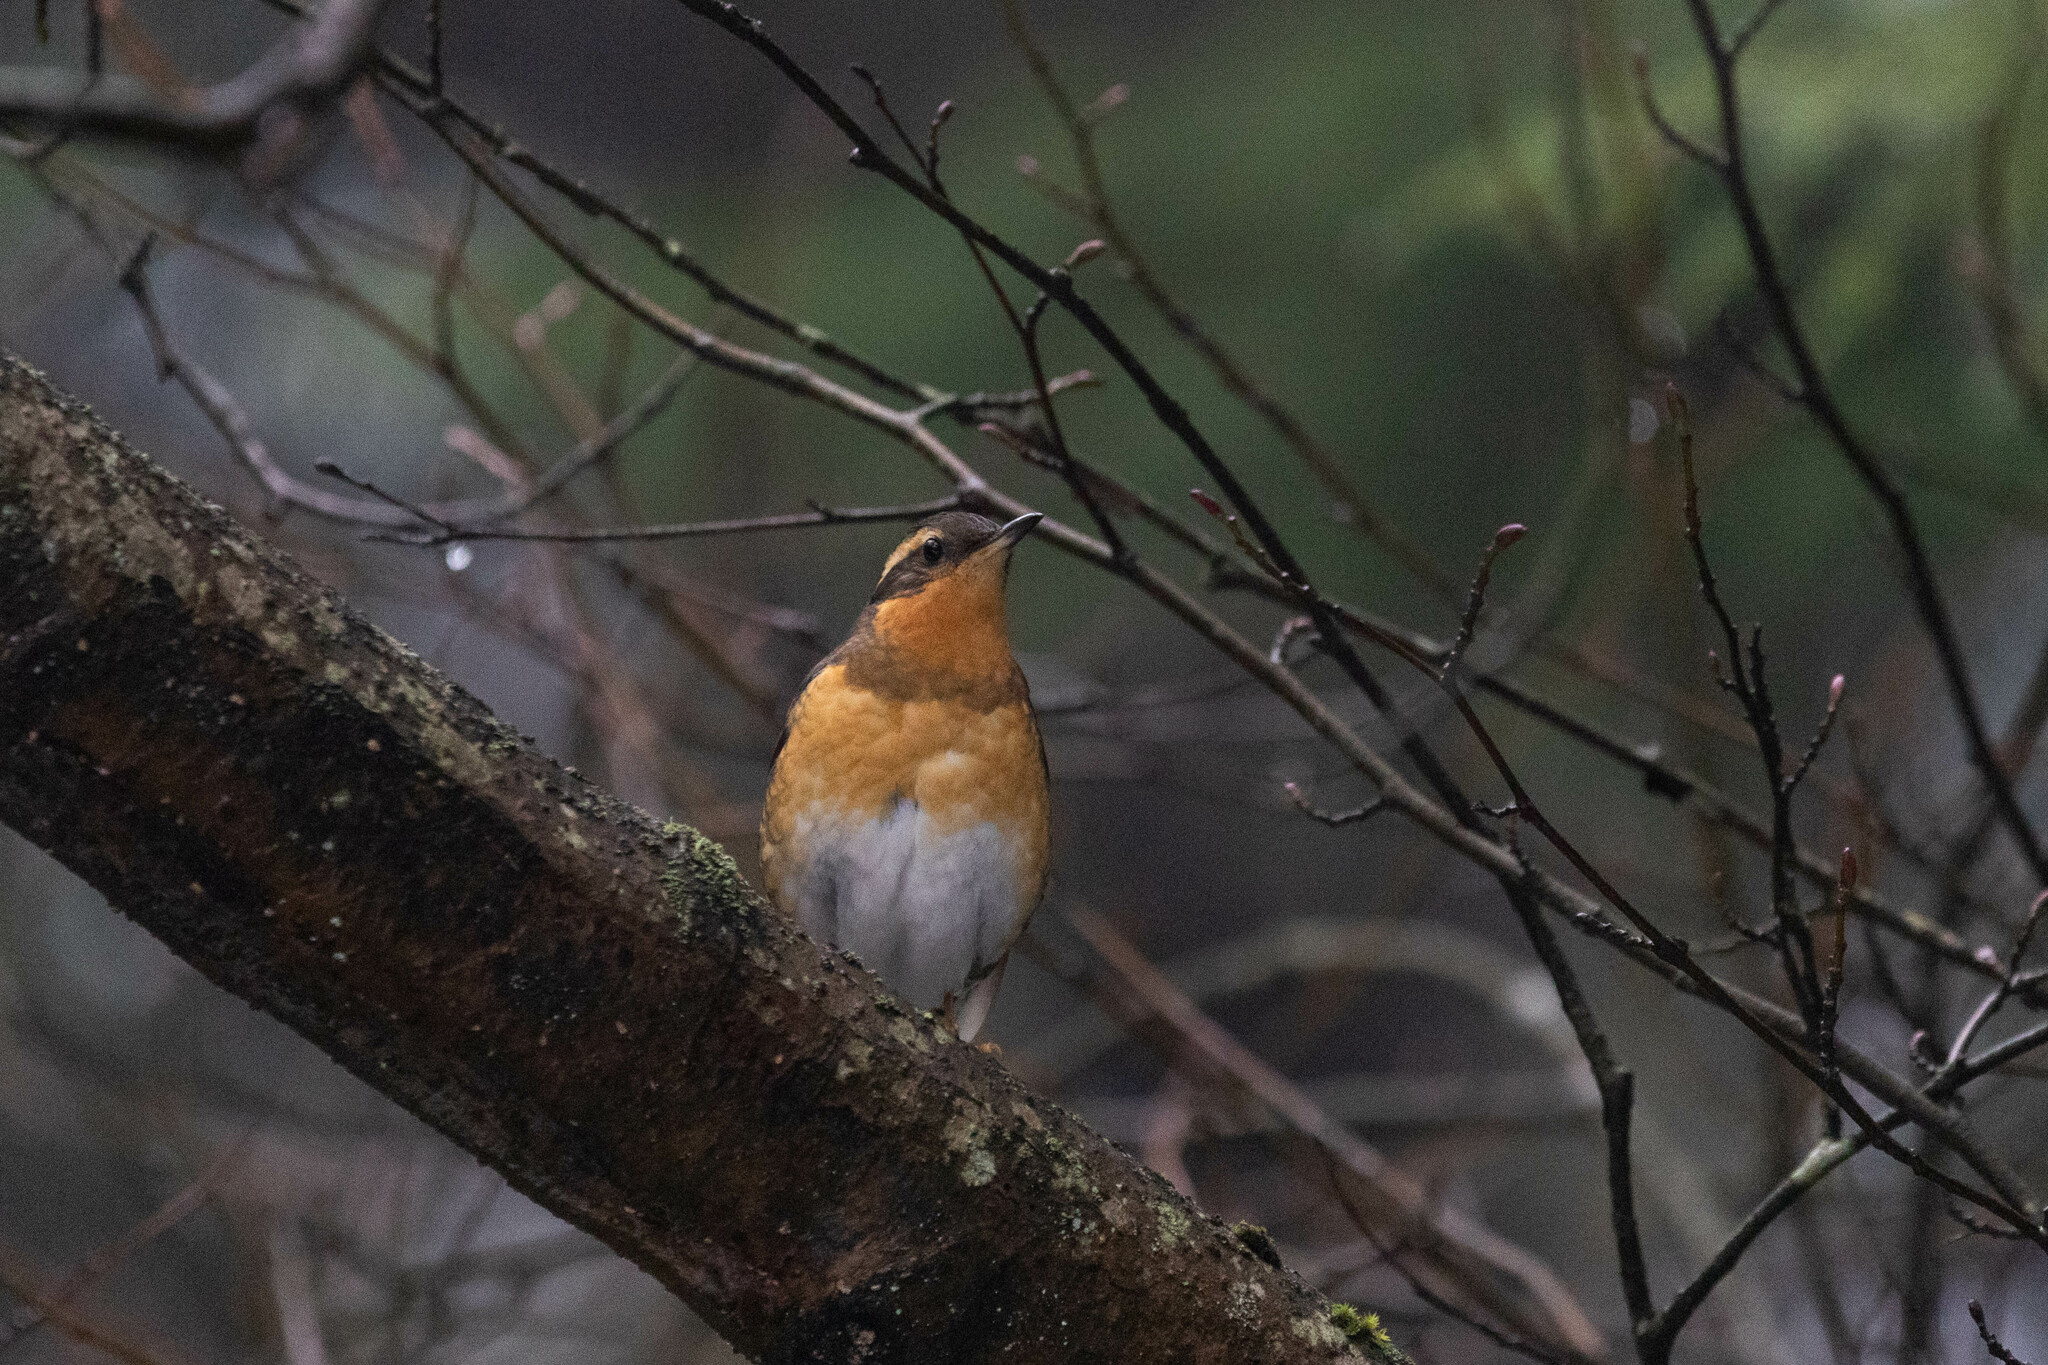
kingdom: Animalia
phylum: Chordata
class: Aves
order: Passeriformes
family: Turdidae
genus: Ixoreus
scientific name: Ixoreus naevius
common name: Varied thrush
